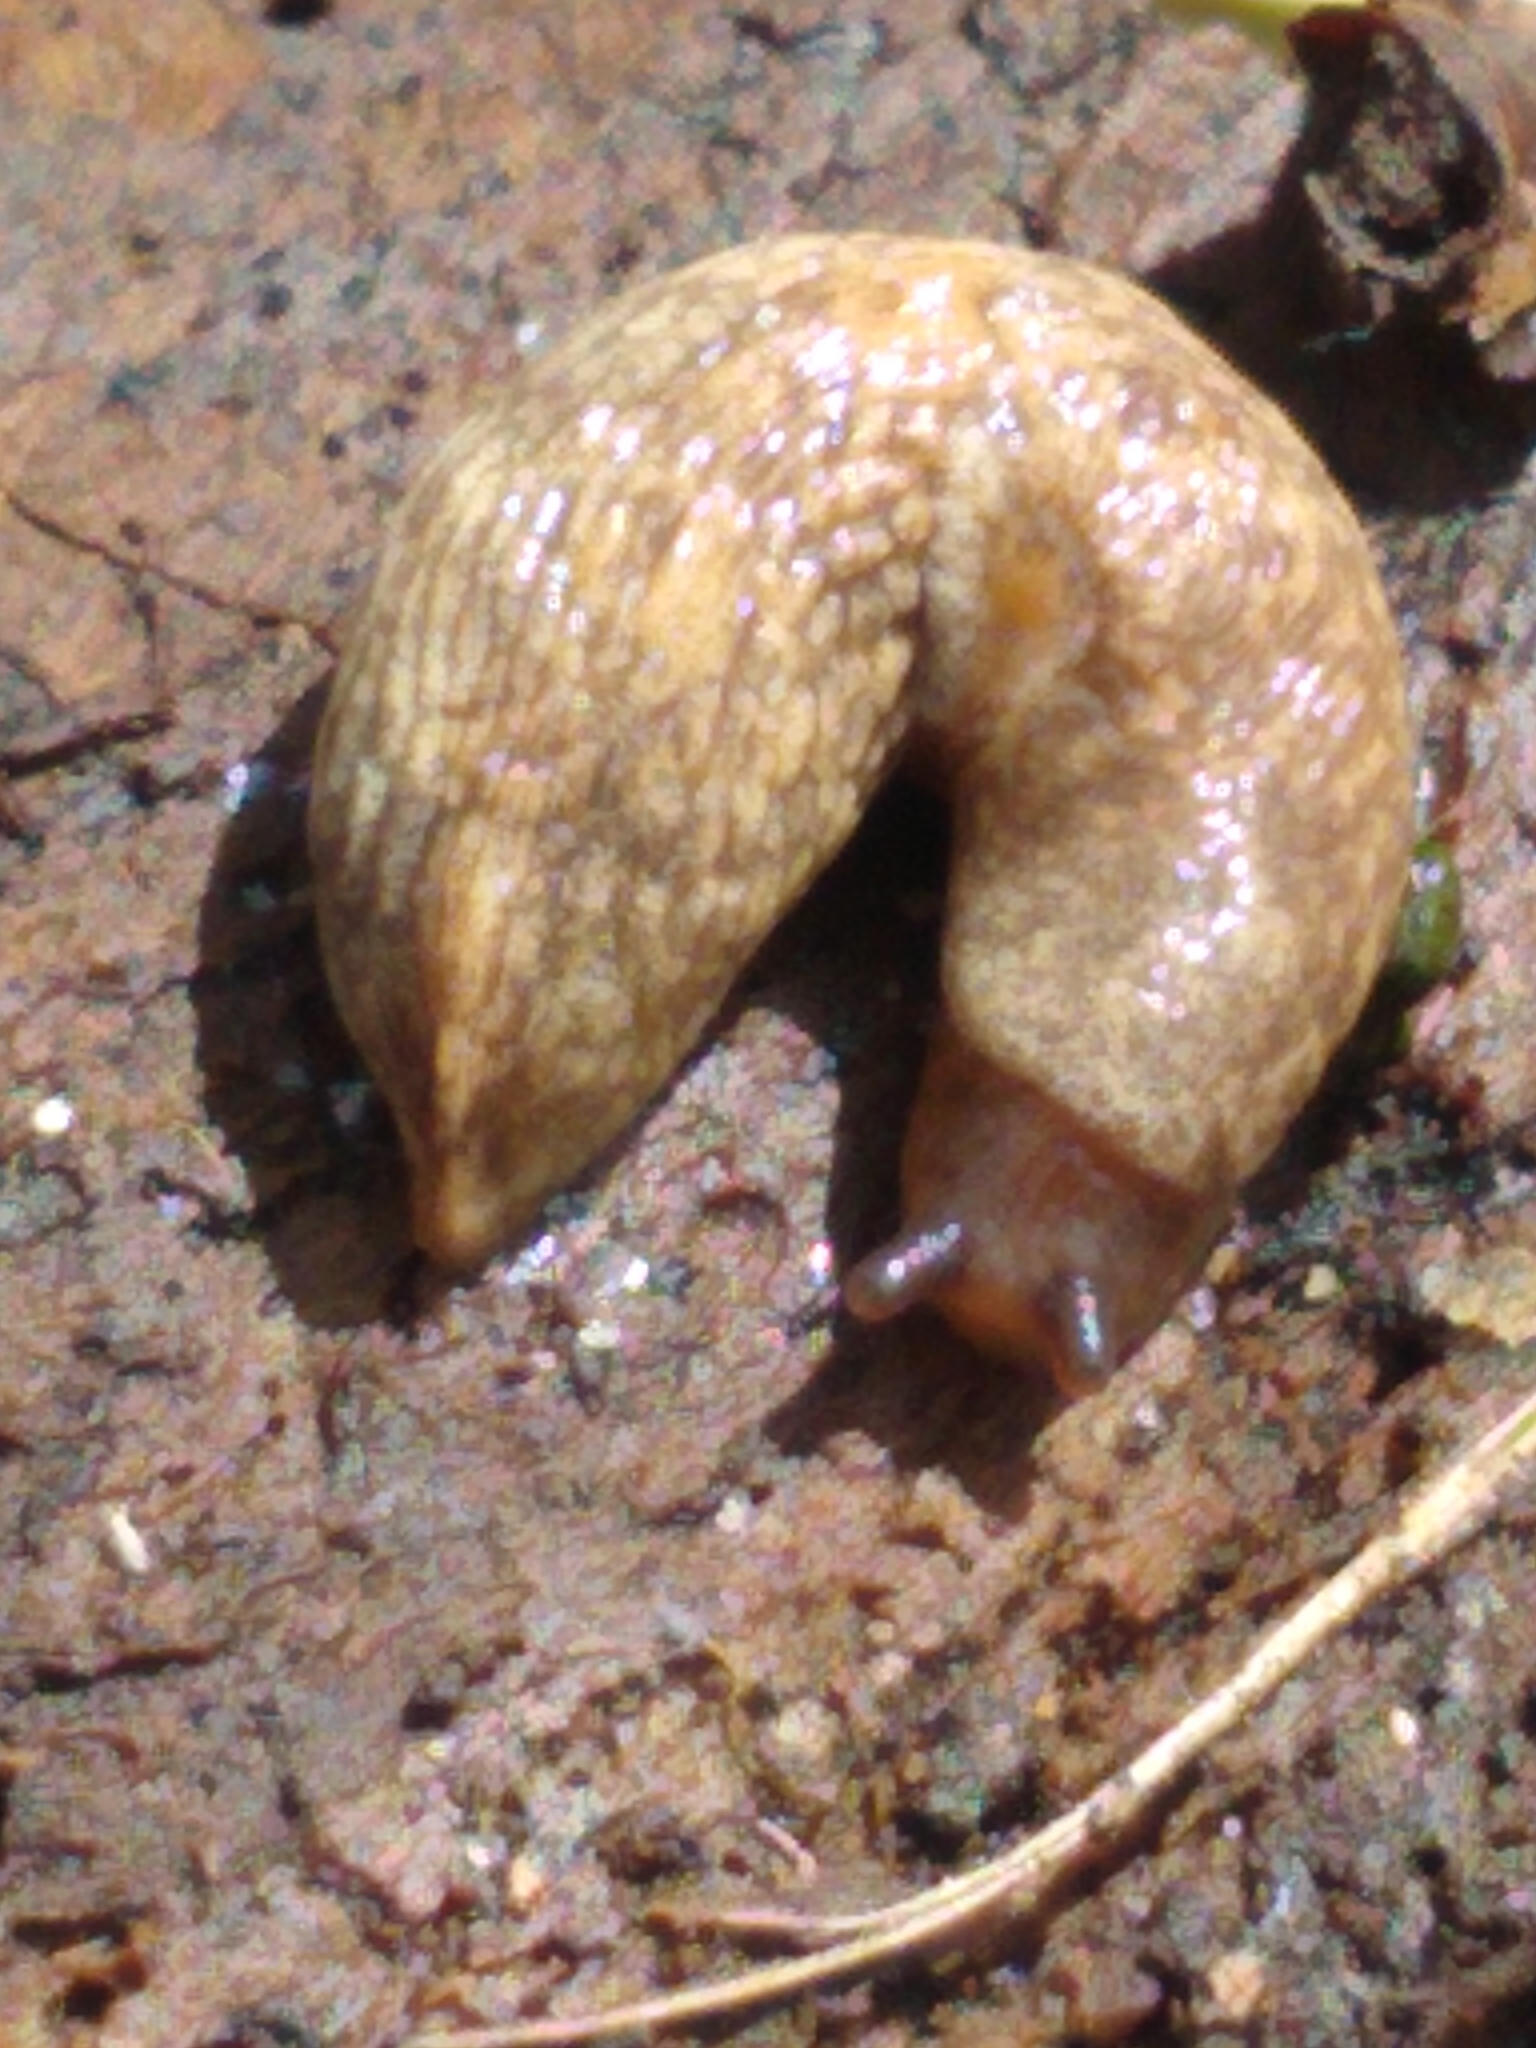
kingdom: Animalia
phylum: Mollusca
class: Gastropoda
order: Stylommatophora
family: Agriolimacidae
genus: Deroceras
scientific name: Deroceras reticulatum
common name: Gray field slug
